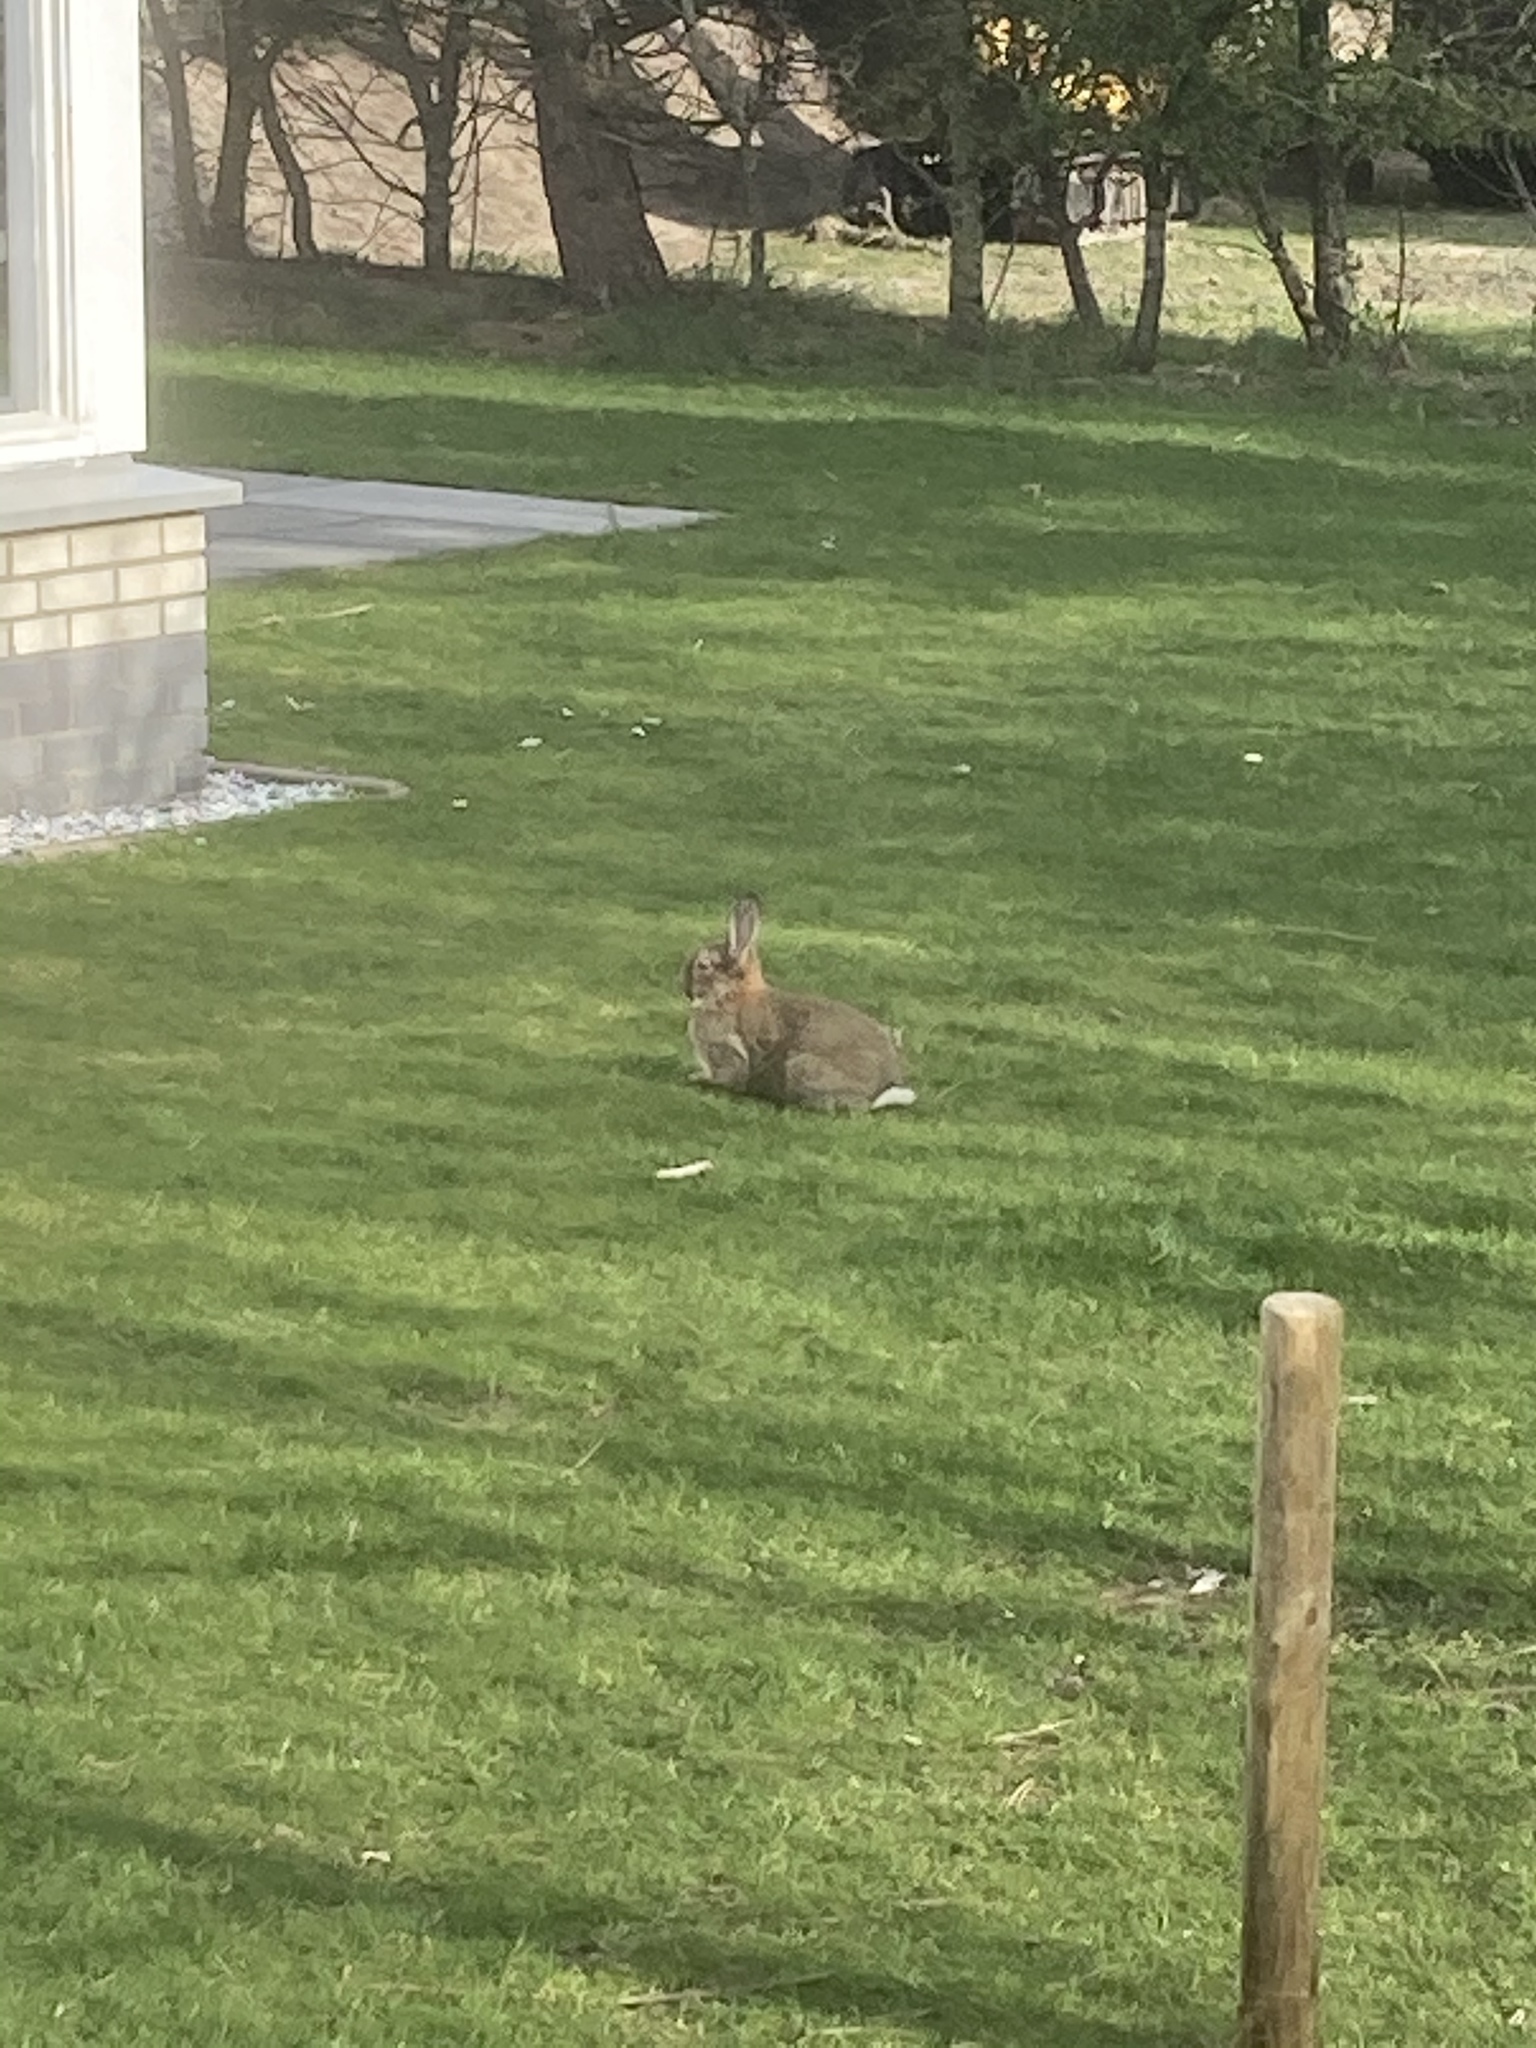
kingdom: Animalia
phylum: Chordata
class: Mammalia
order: Lagomorpha
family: Leporidae
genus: Oryctolagus
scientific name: Oryctolagus cuniculus
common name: European rabbit
